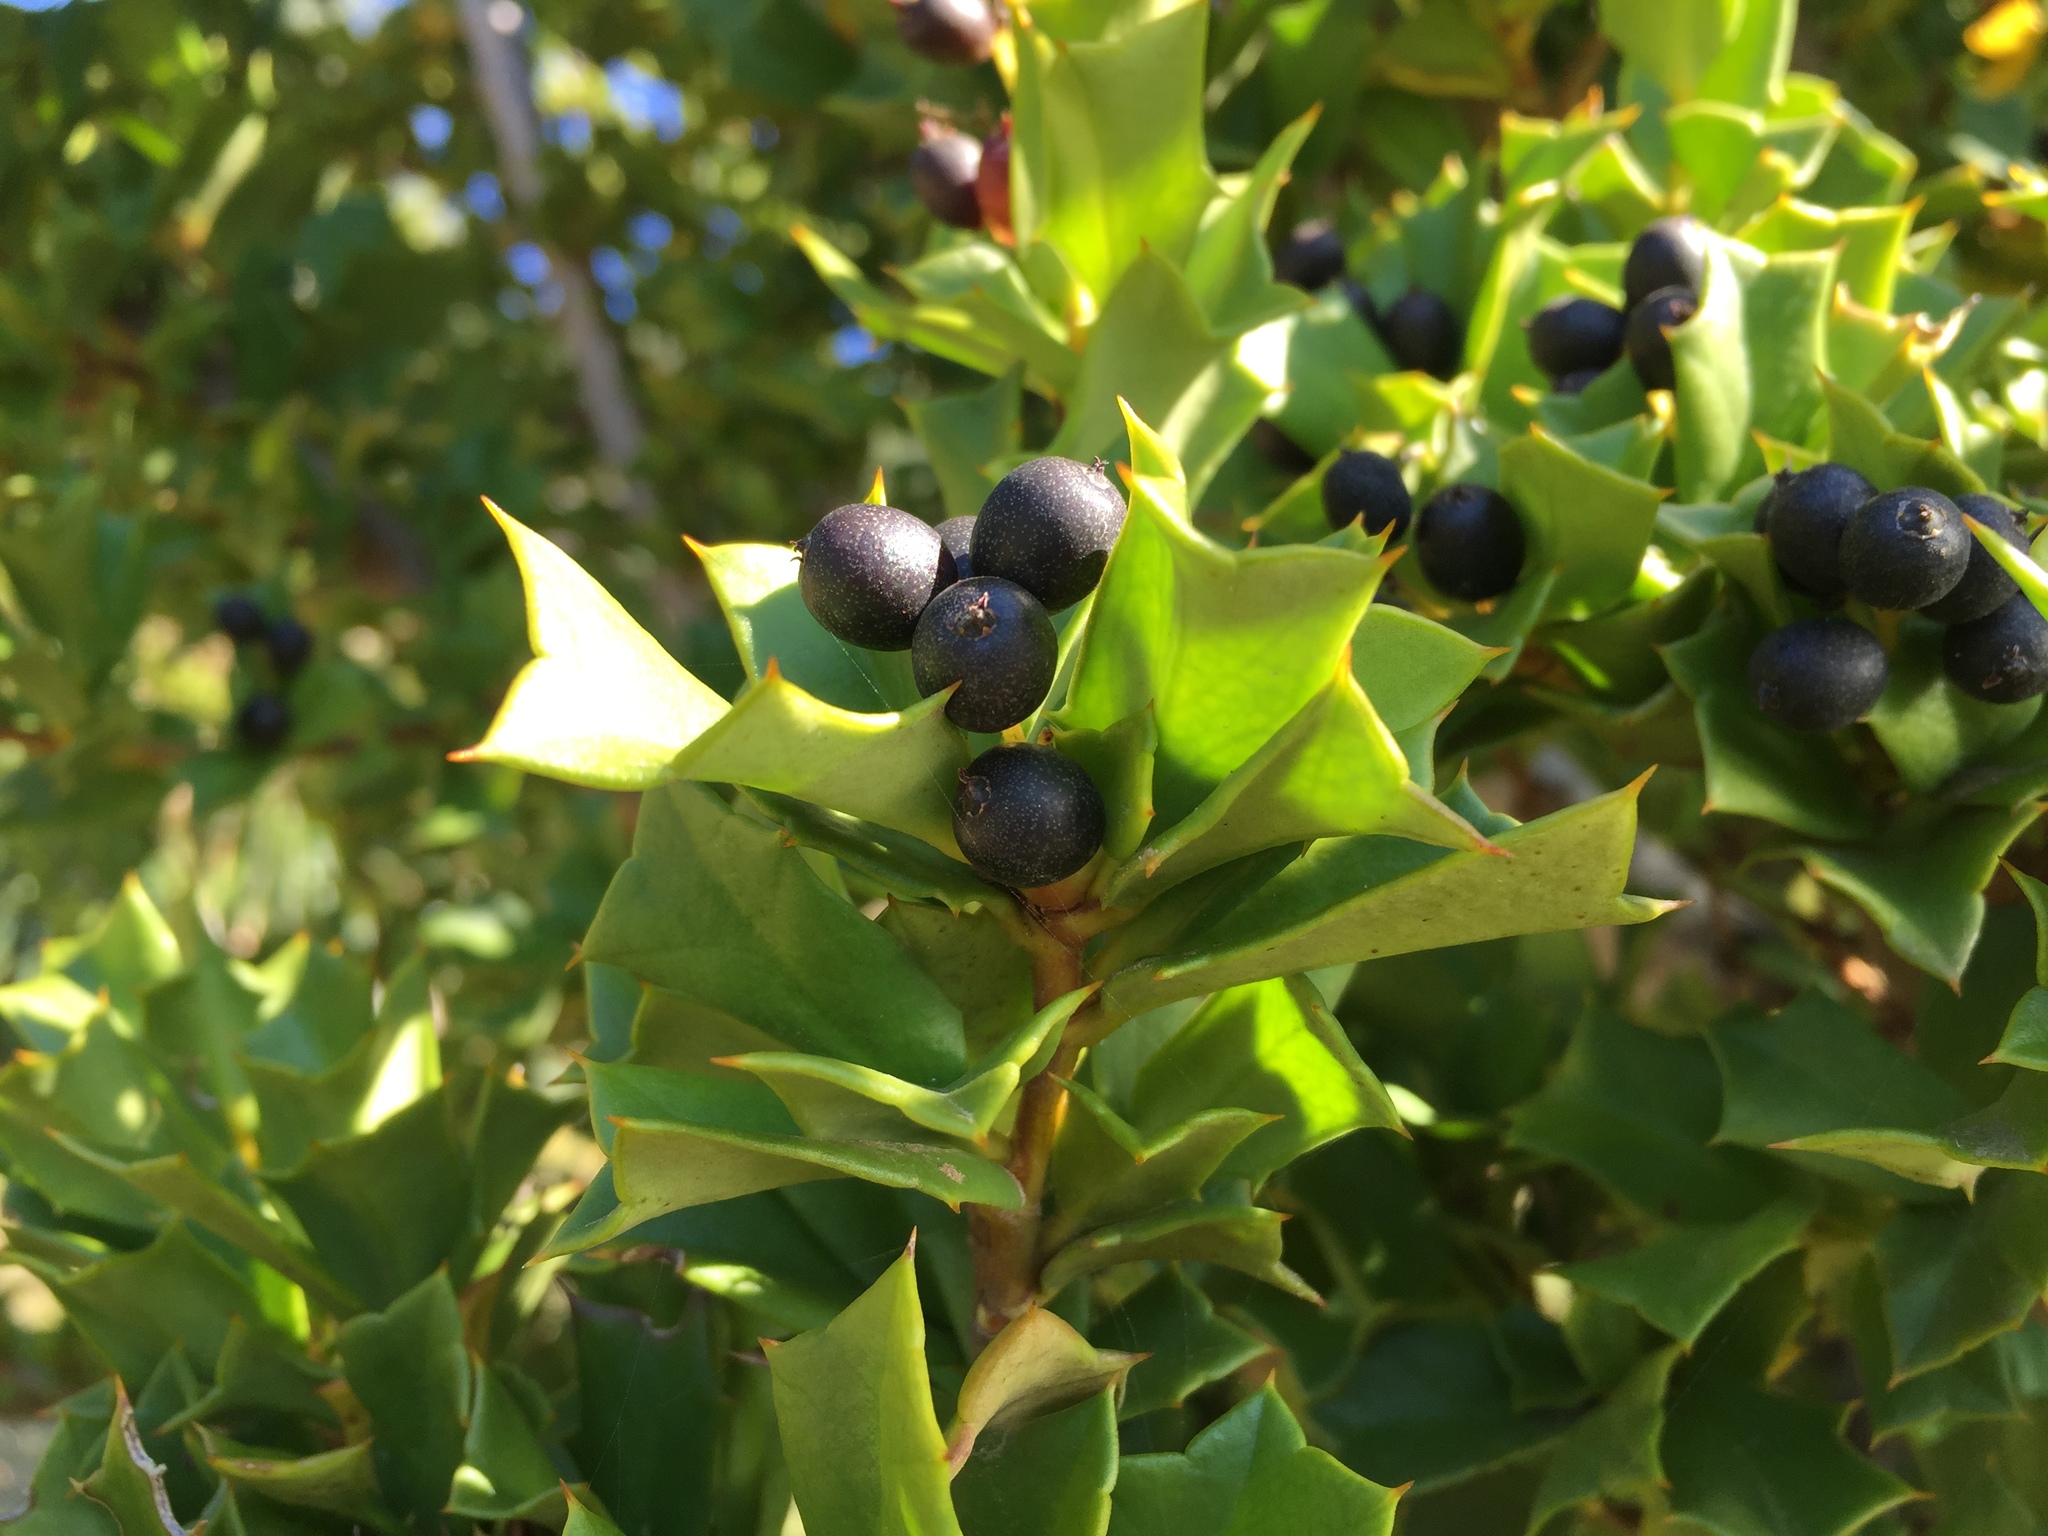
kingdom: Plantae
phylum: Tracheophyta
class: Magnoliopsida
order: Apiales
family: Griseliniaceae
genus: Griselinia
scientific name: Griselinia jodinifolia
